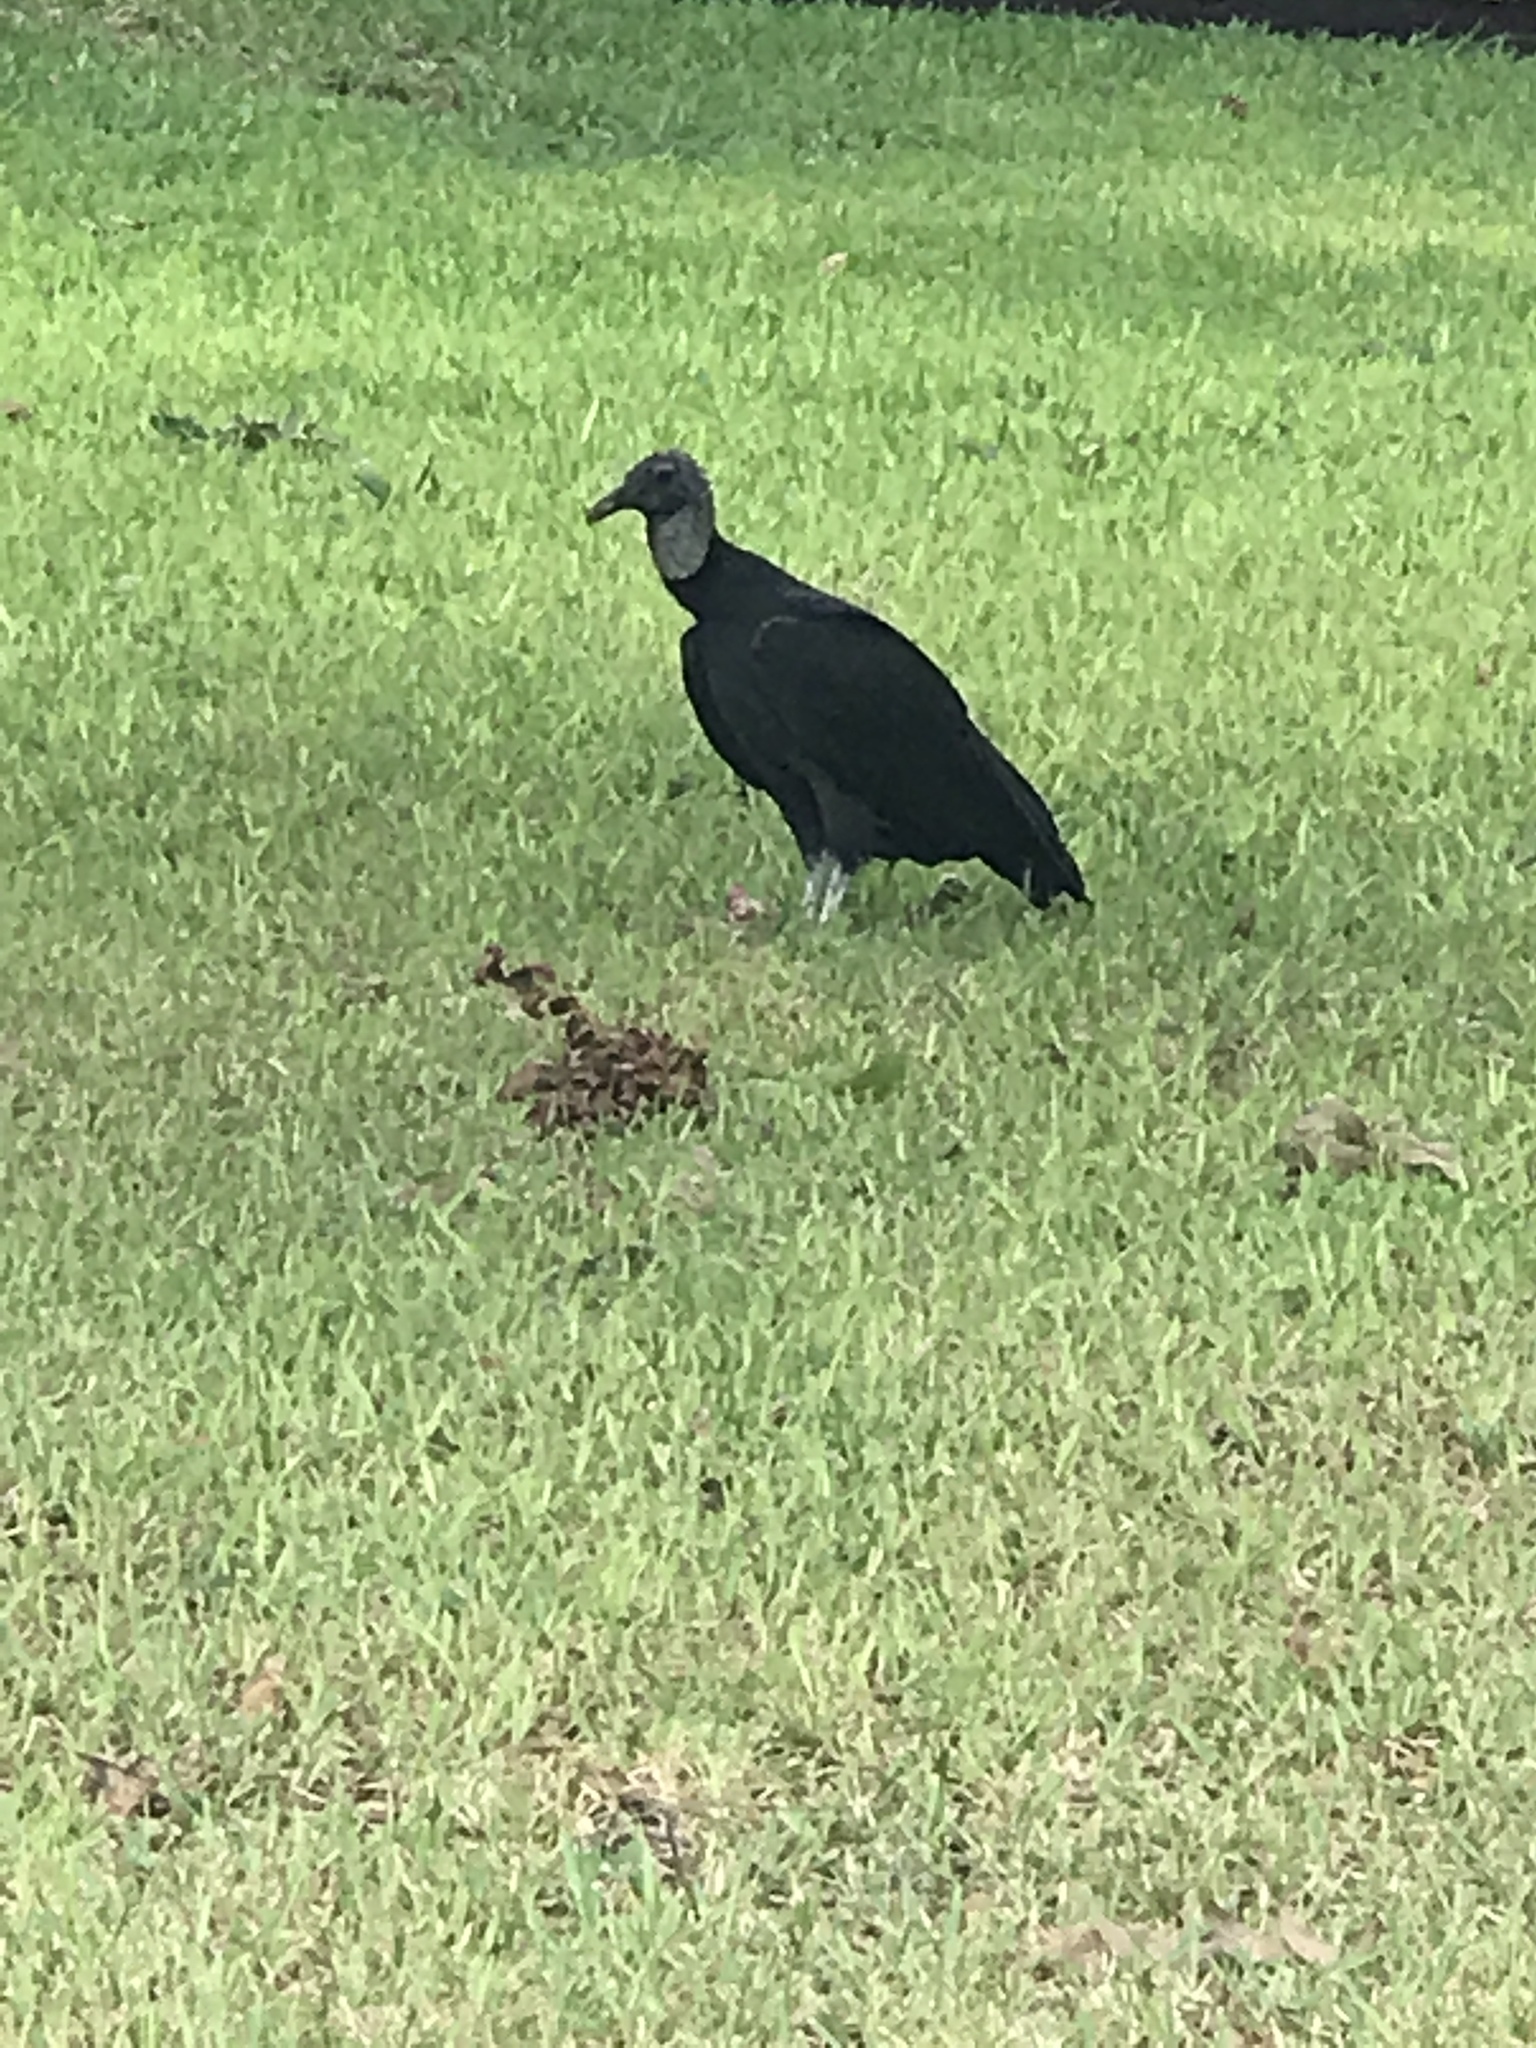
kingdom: Animalia
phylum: Chordata
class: Aves
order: Accipitriformes
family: Cathartidae
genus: Coragyps
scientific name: Coragyps atratus
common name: Black vulture
